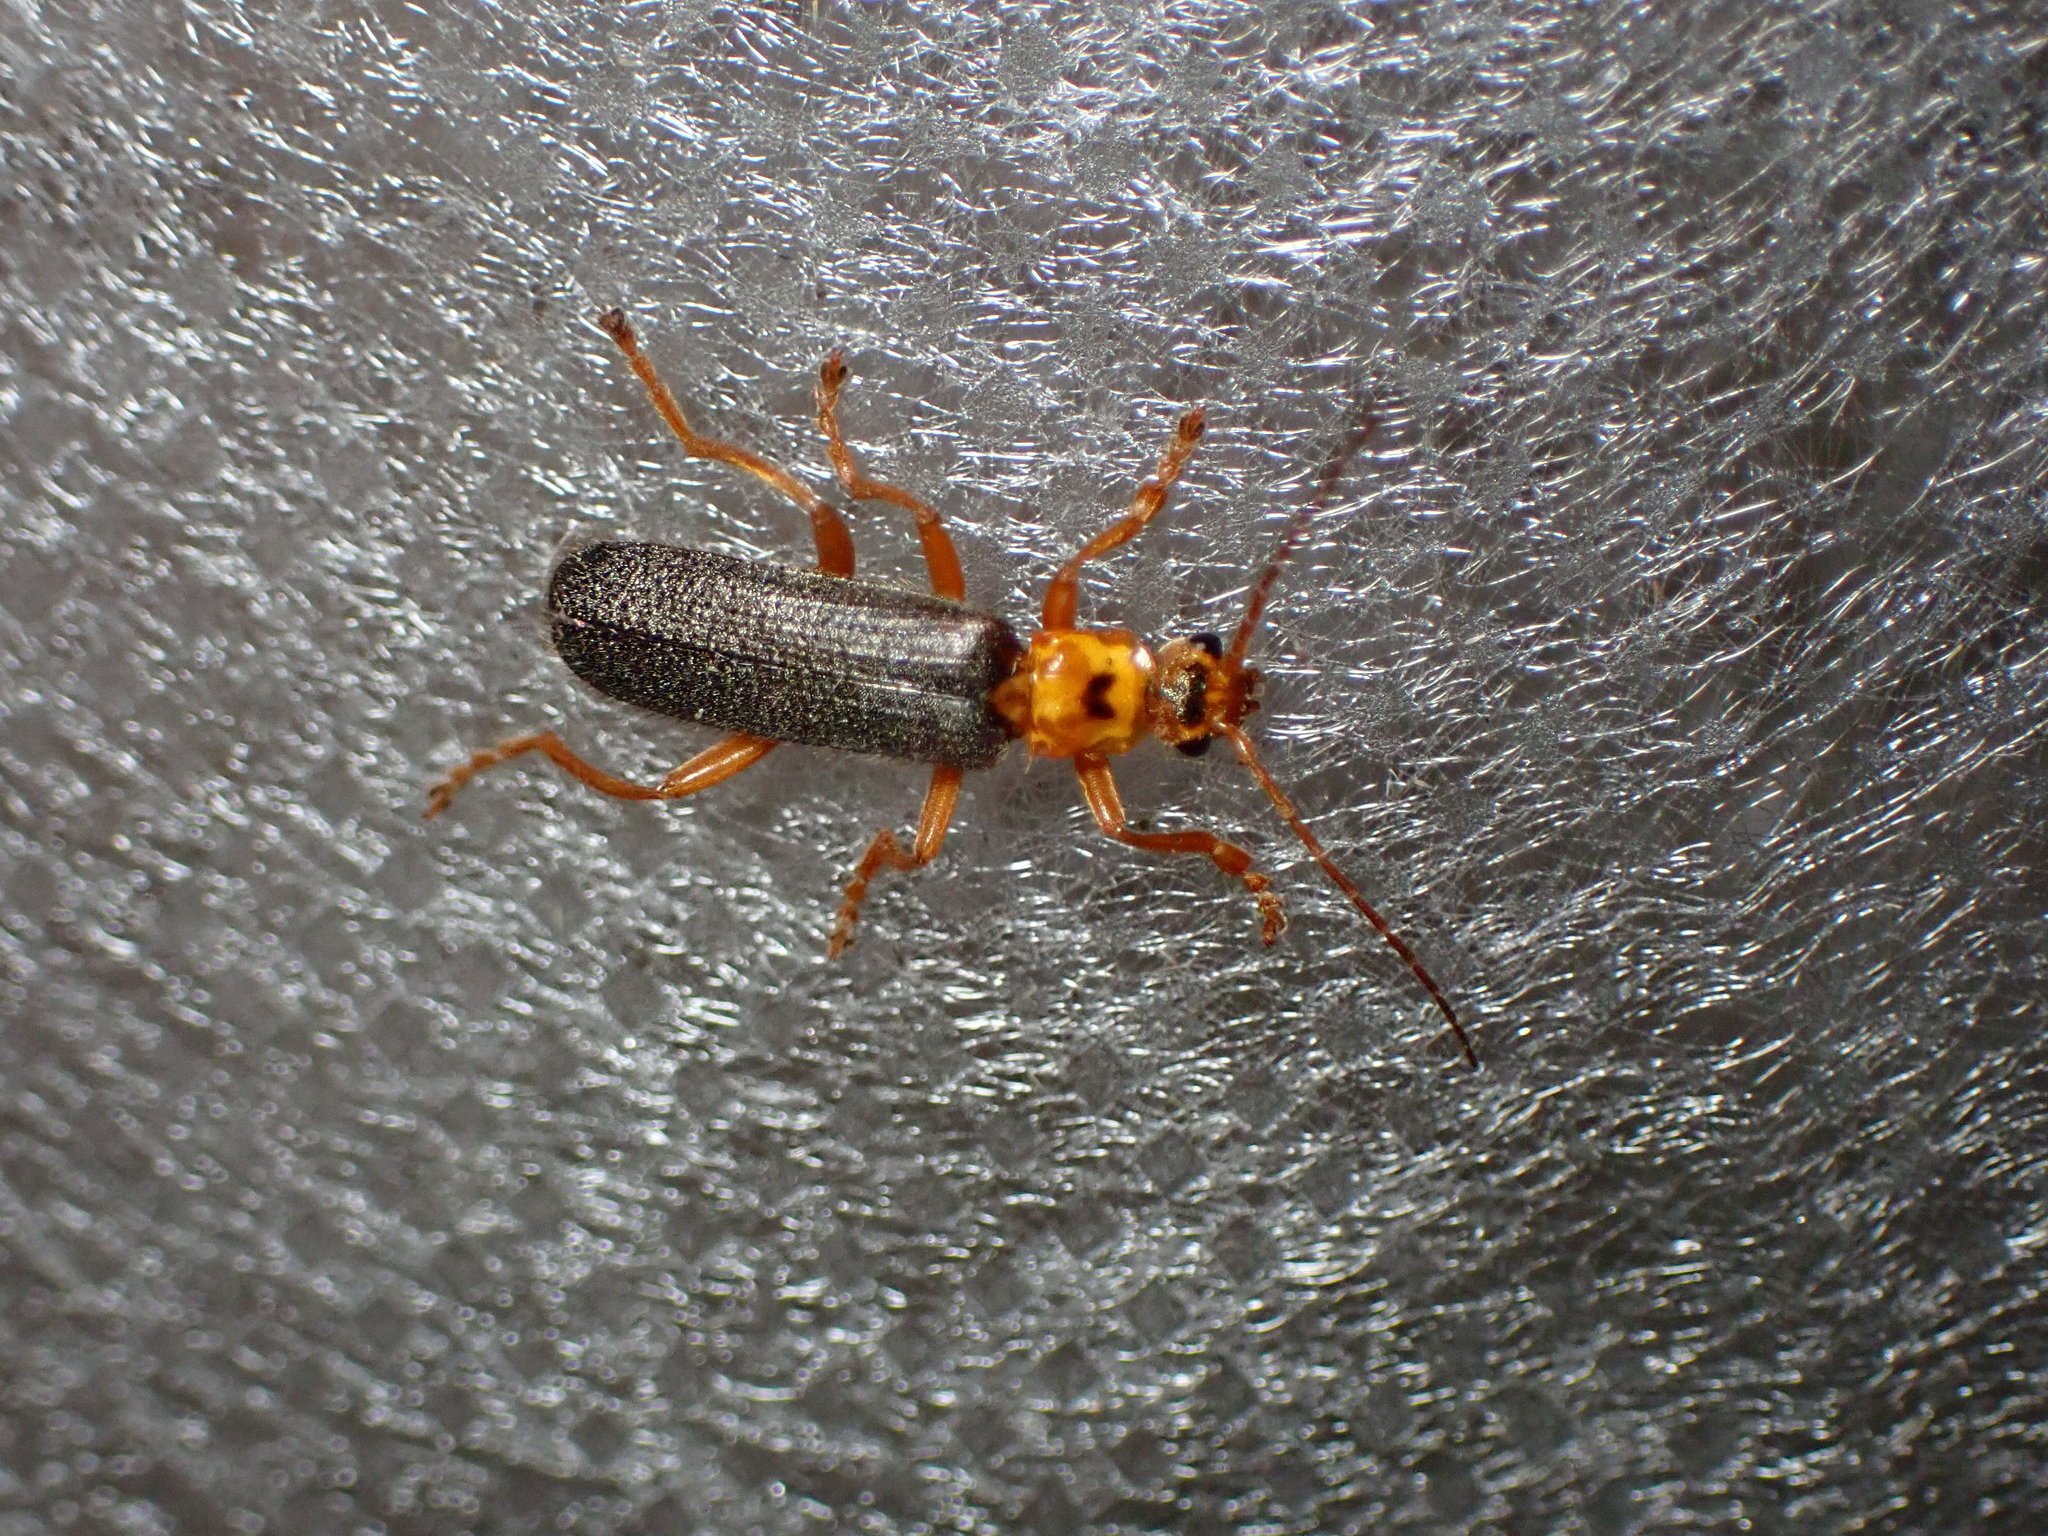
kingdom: Animalia
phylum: Arthropoda
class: Insecta
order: Coleoptera
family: Cantharidae
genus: Cultellunguis
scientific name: Cultellunguis americanus
